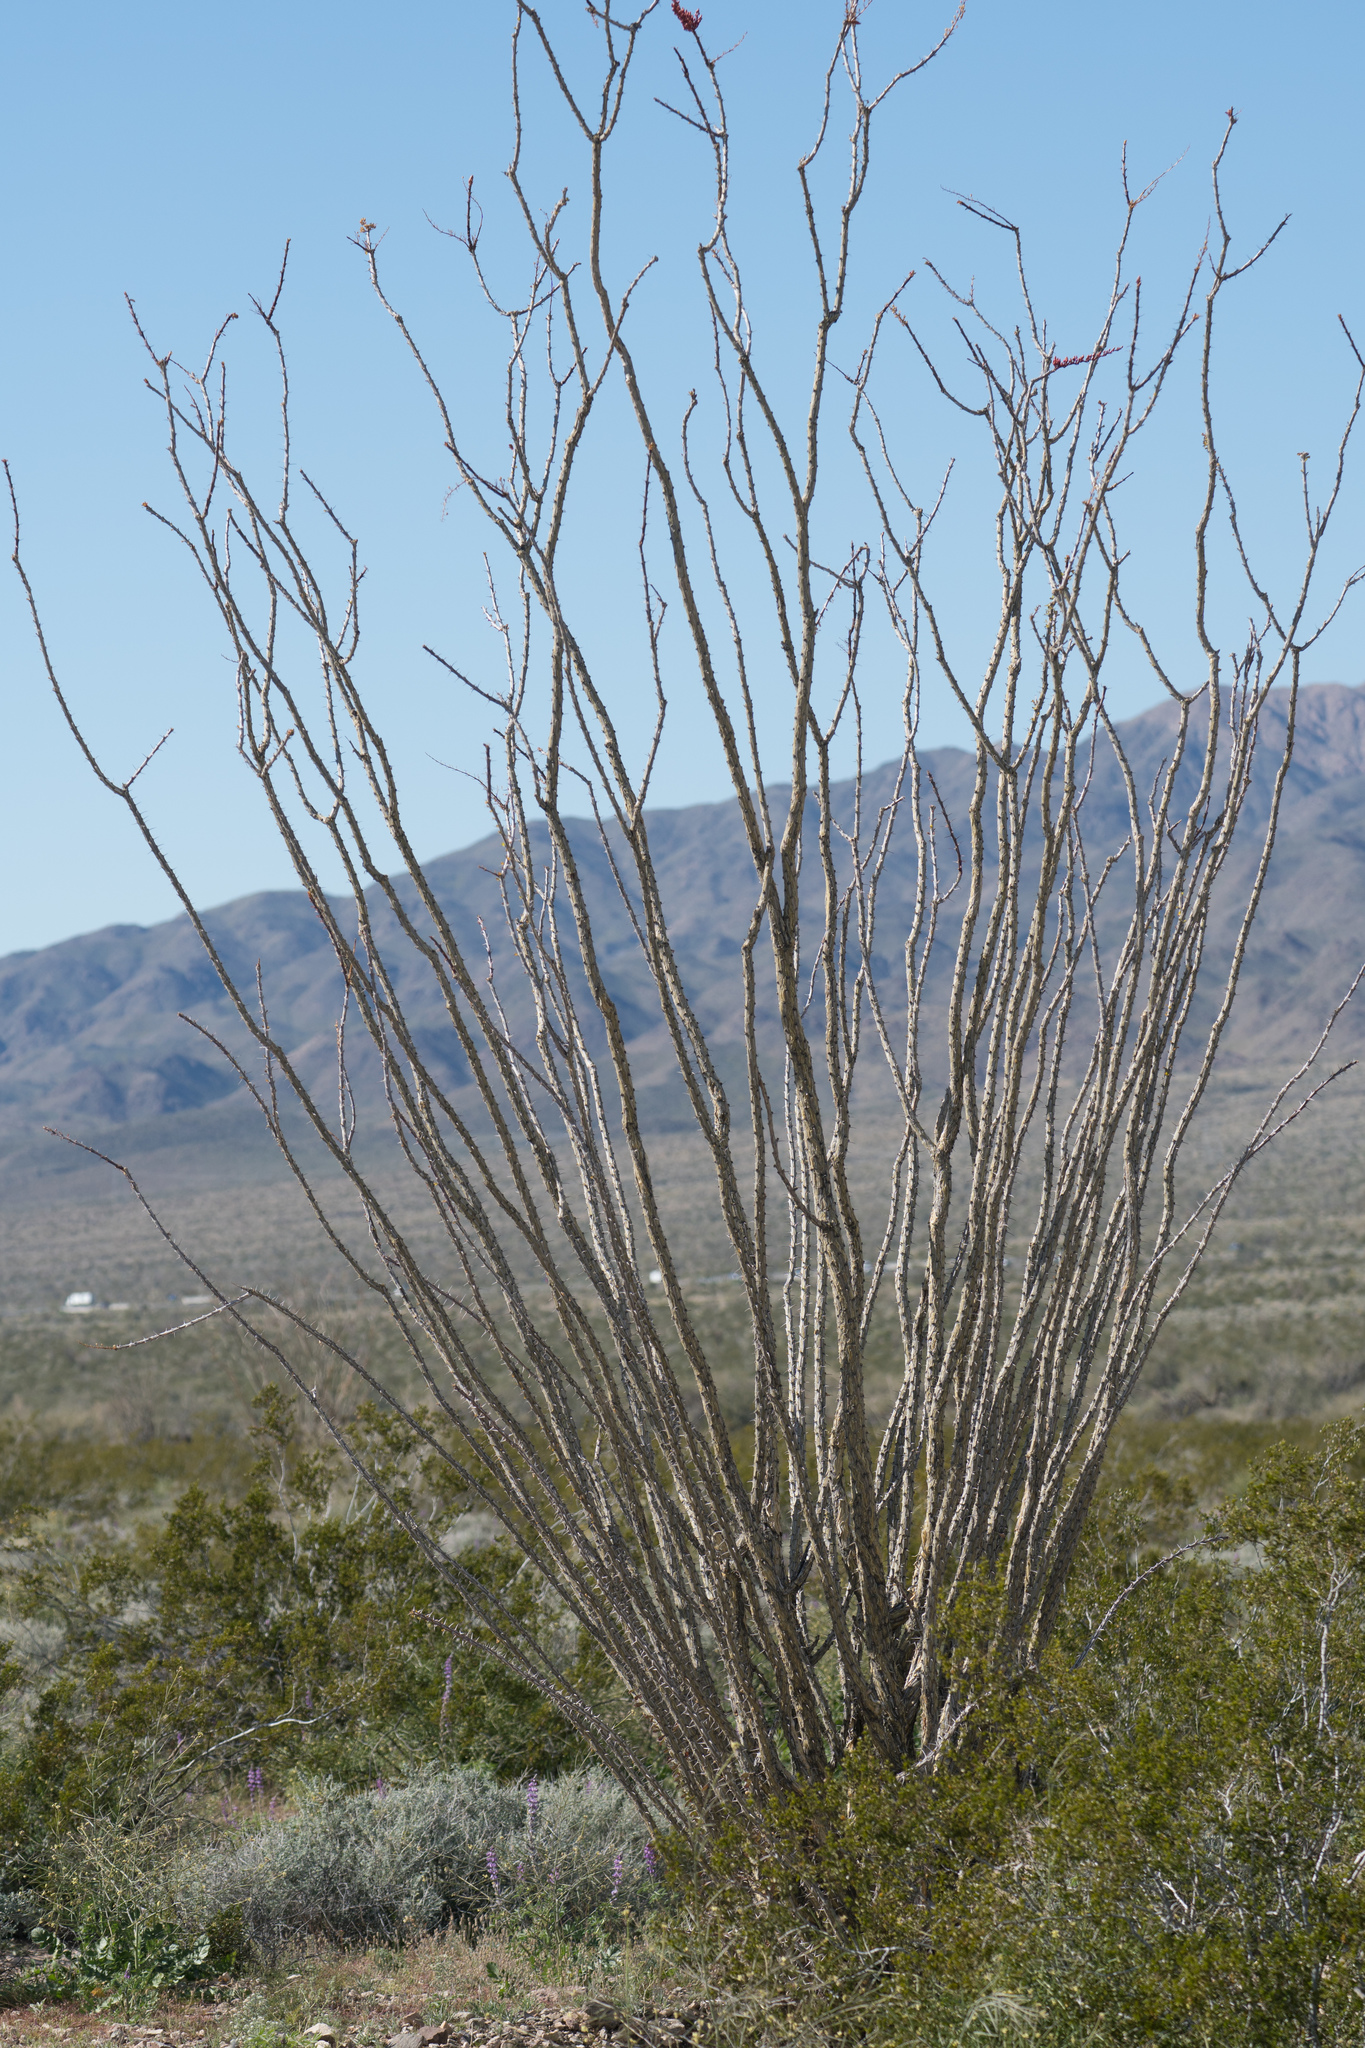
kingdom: Plantae
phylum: Tracheophyta
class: Magnoliopsida
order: Ericales
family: Fouquieriaceae
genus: Fouquieria
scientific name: Fouquieria splendens
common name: Vine-cactus
